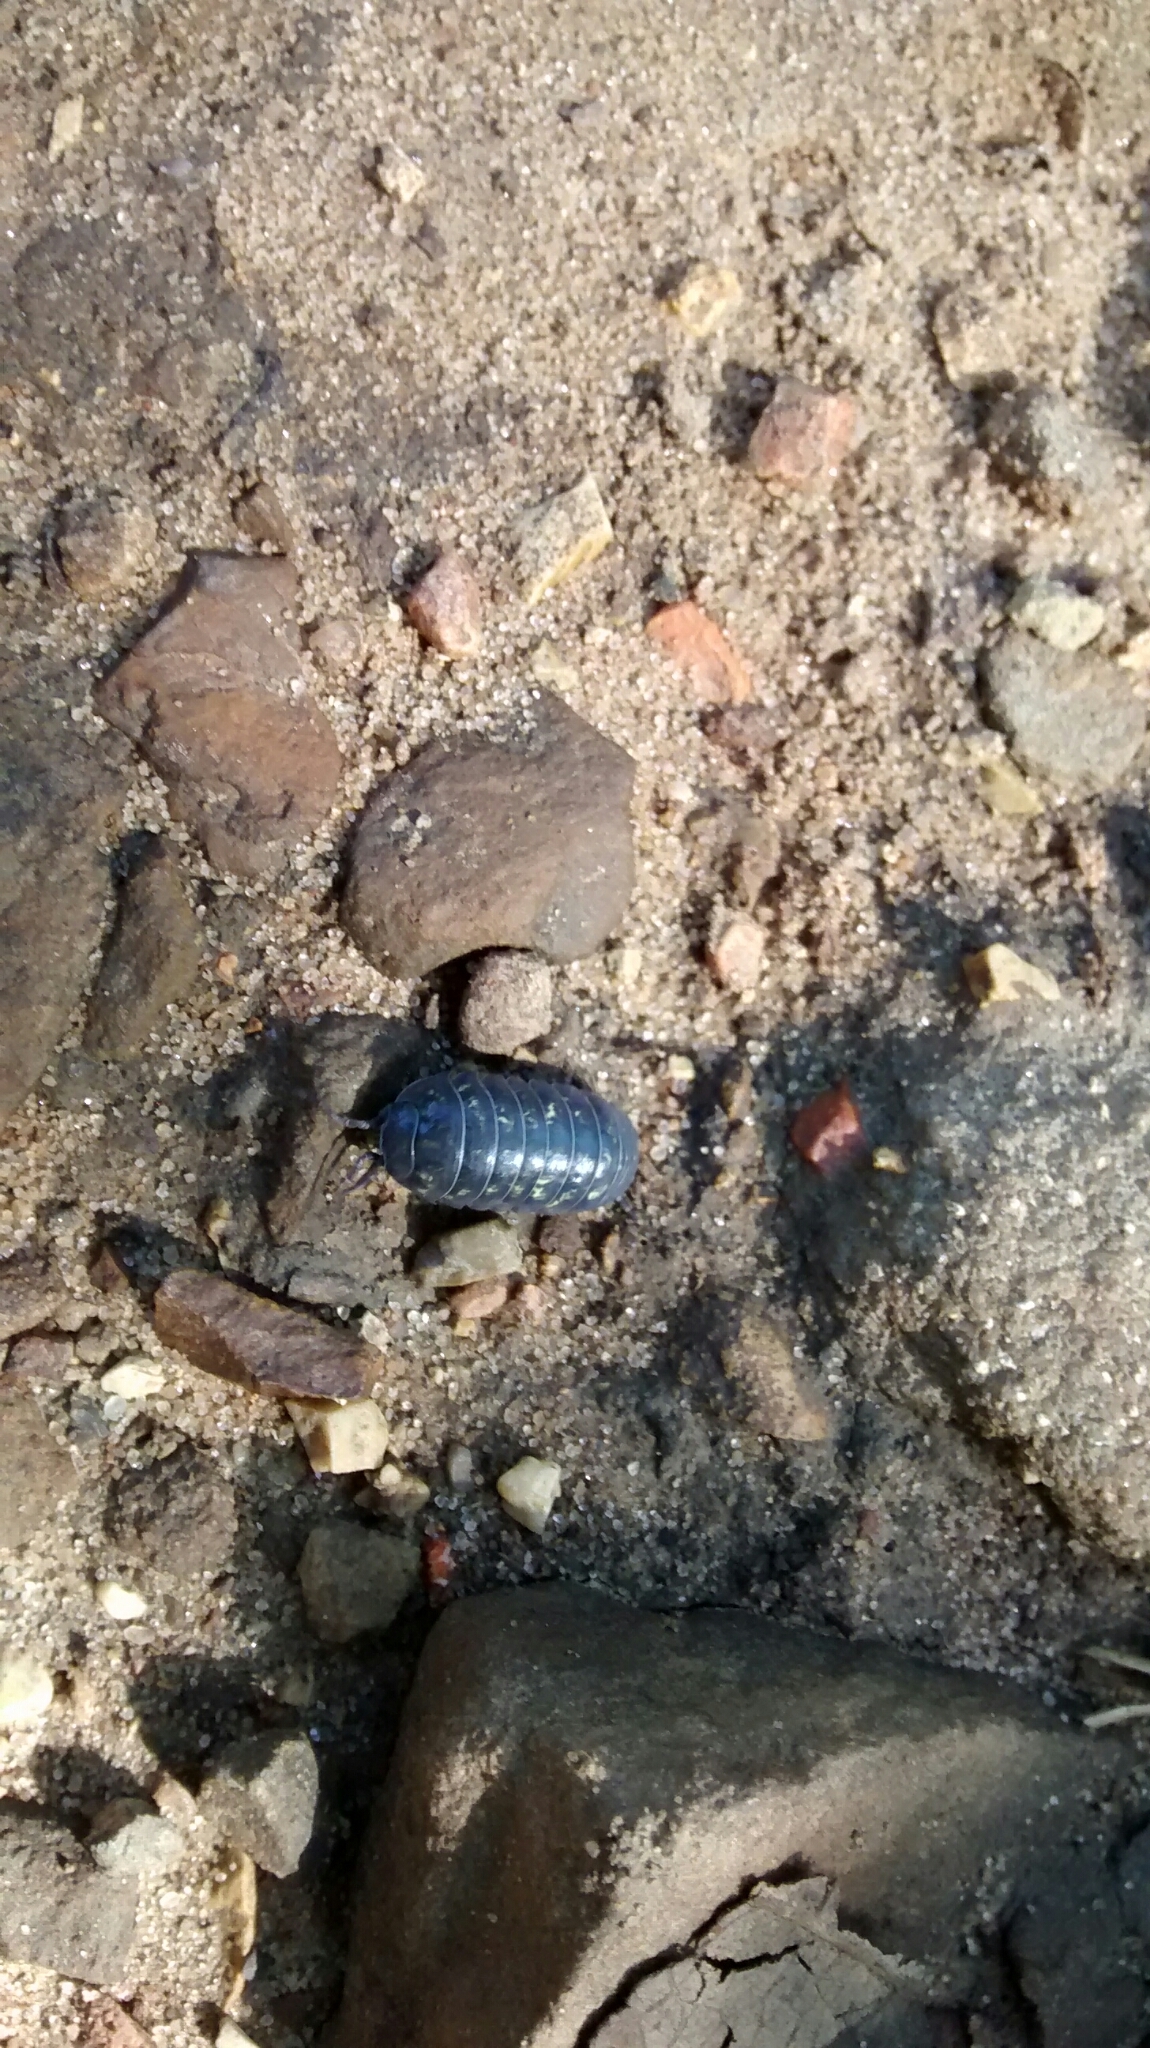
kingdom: Animalia
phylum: Arthropoda
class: Malacostraca
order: Isopoda
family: Armadillidiidae
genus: Armadillidium
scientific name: Armadillidium vulgare
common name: Common pill woodlouse
